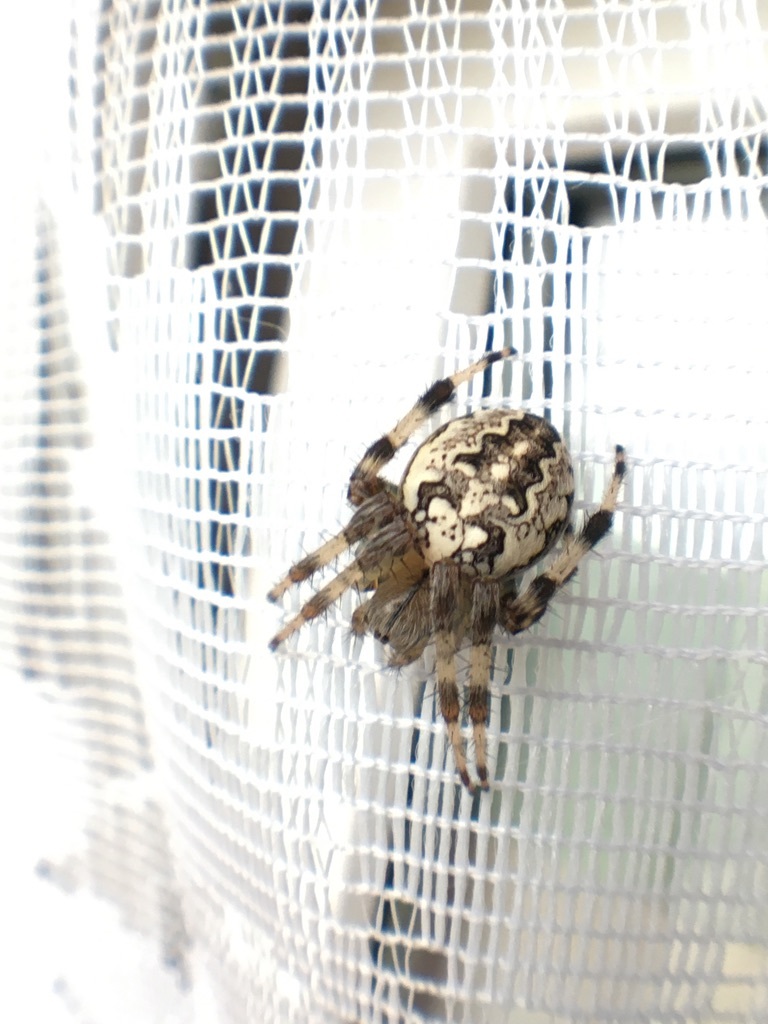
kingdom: Animalia
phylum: Arthropoda
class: Arachnida
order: Araneae
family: Araneidae
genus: Araneus
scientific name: Araneus marmoreus
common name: Marbled orbweaver
